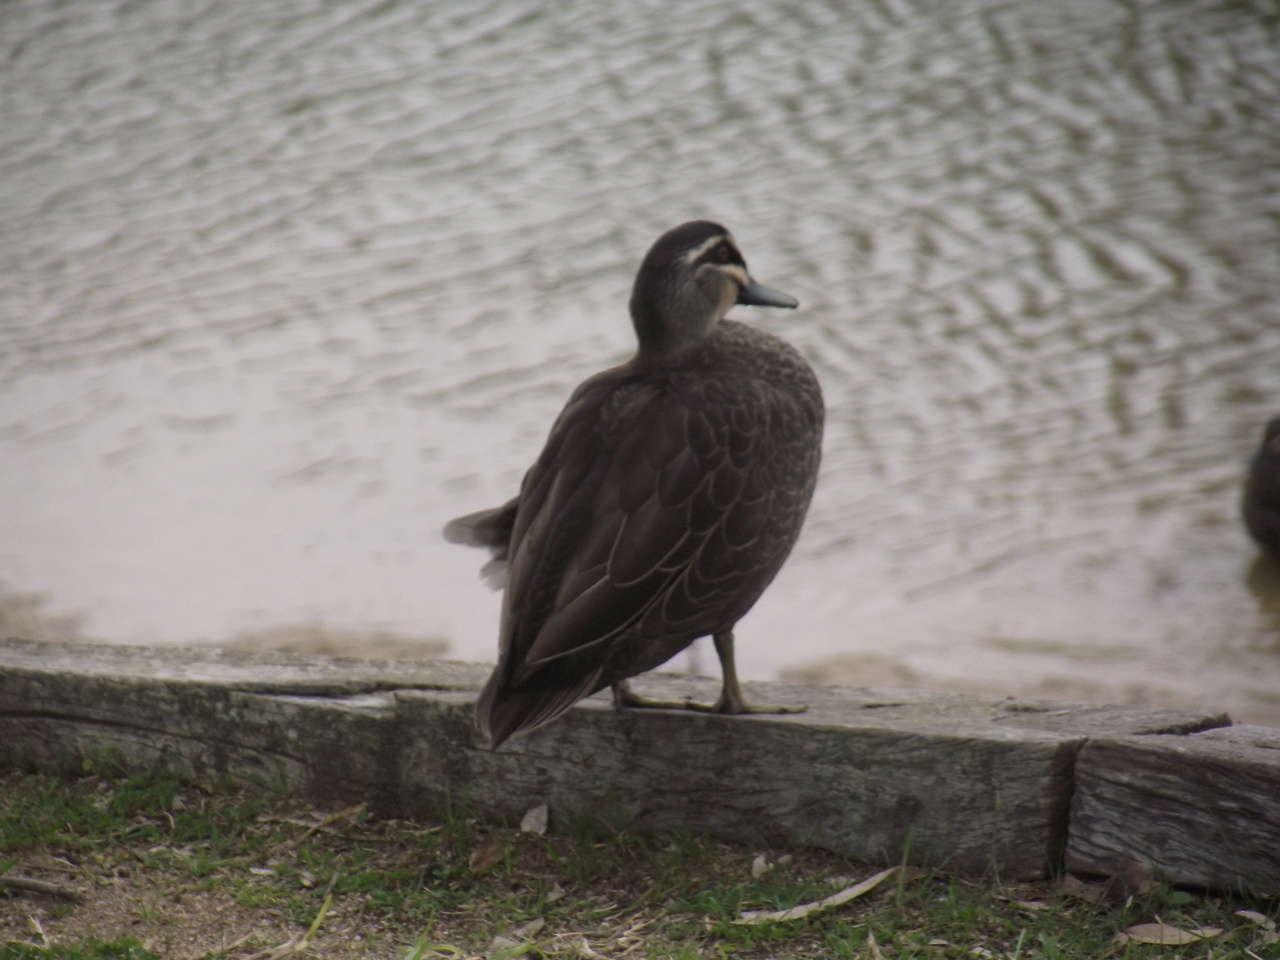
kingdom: Animalia
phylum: Chordata
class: Aves
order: Anseriformes
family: Anatidae
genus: Anas
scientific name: Anas superciliosa
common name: Pacific black duck
